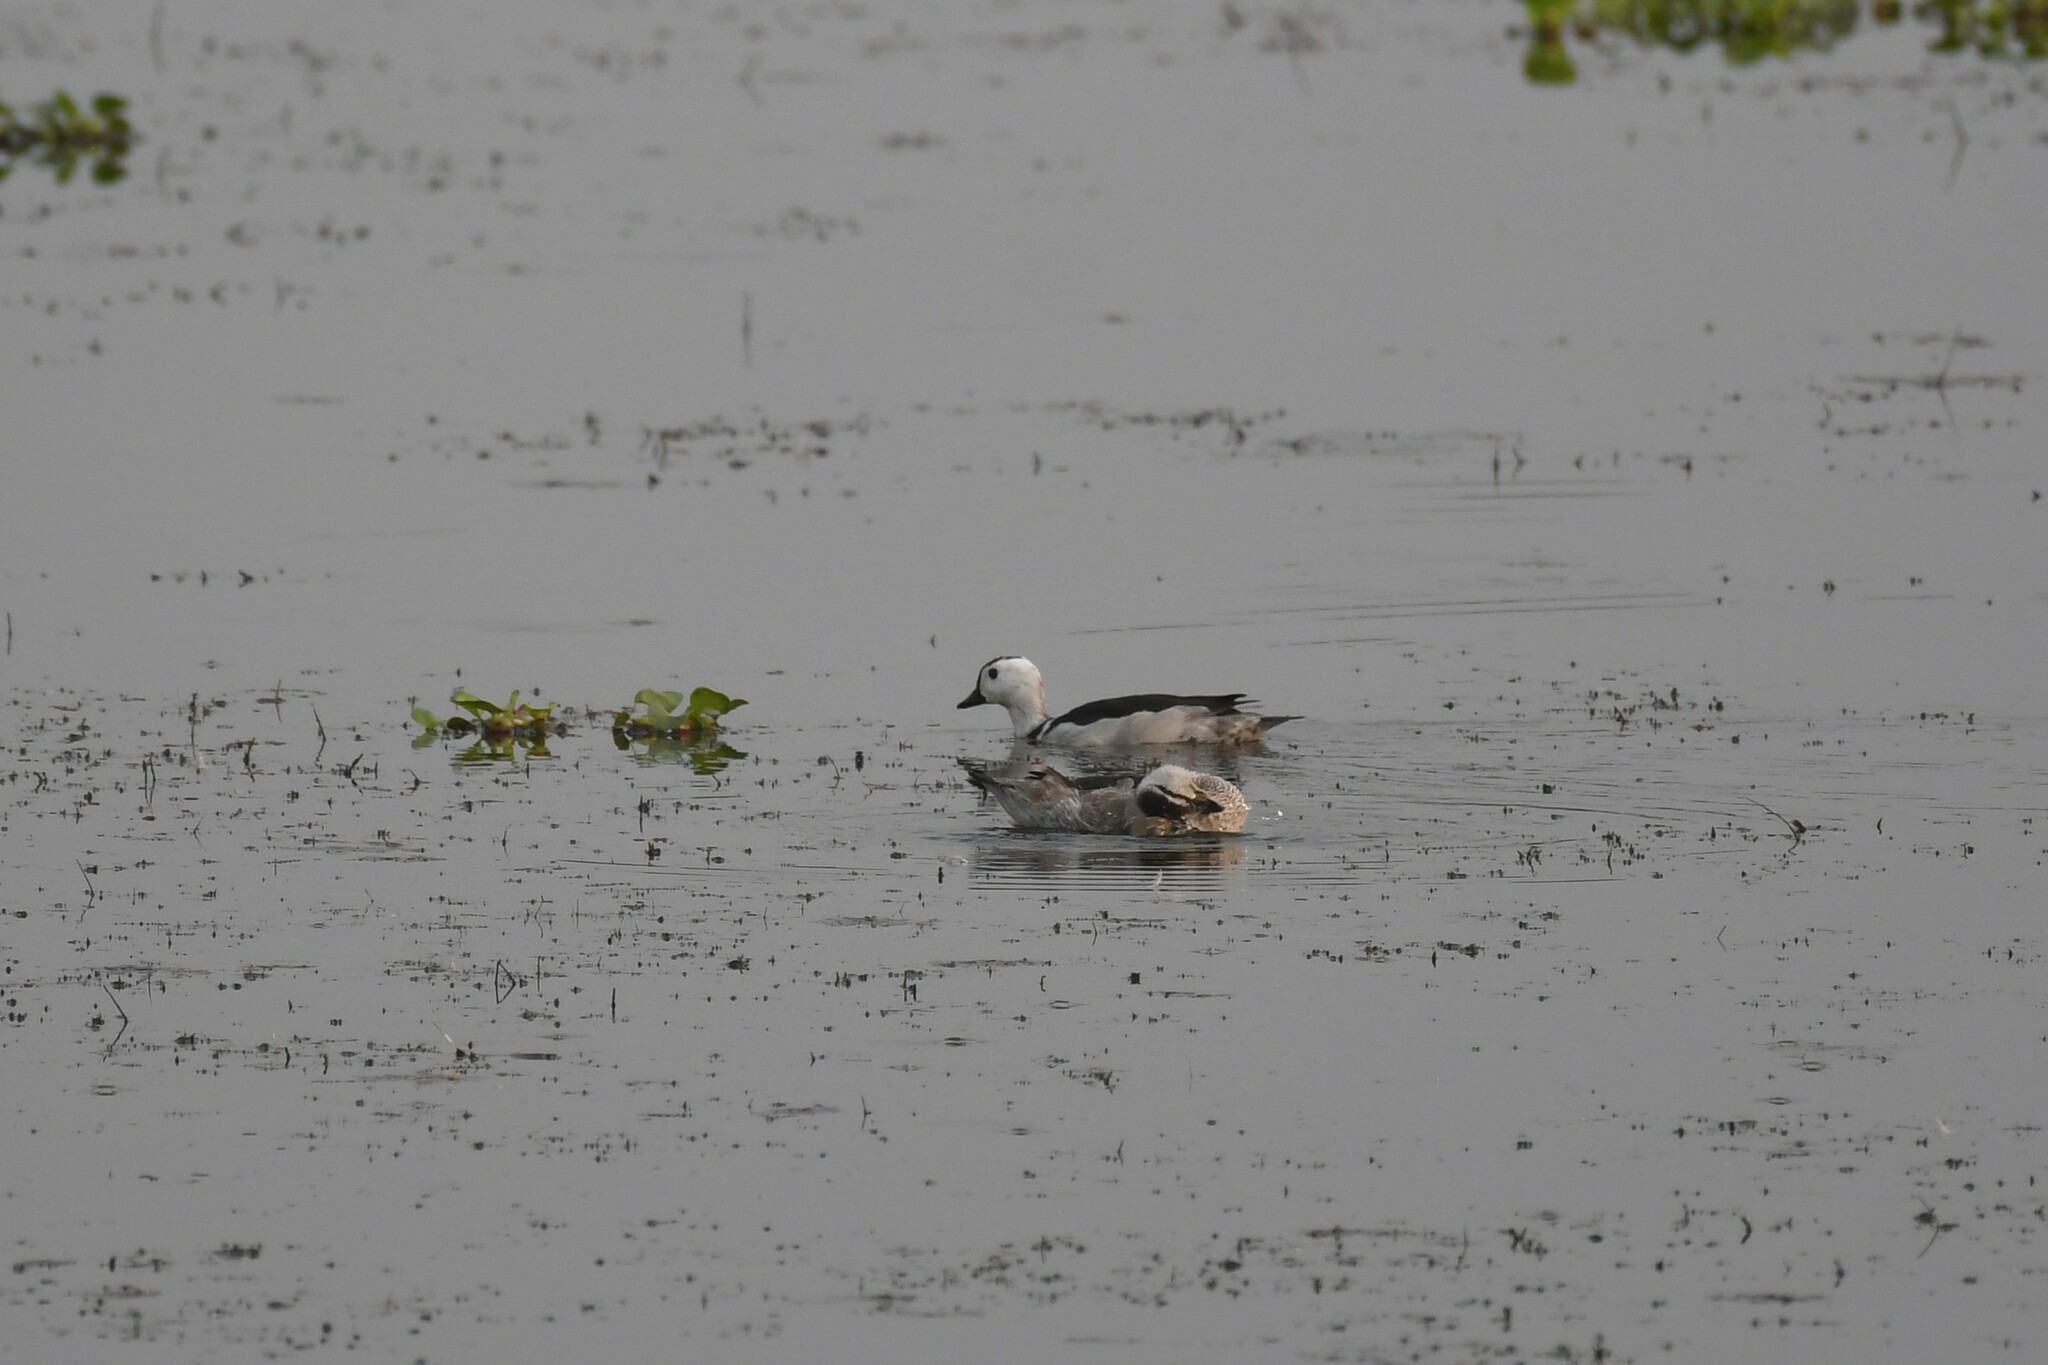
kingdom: Animalia
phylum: Chordata
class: Aves
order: Anseriformes
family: Anatidae
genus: Nettapus
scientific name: Nettapus coromandelianus
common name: Cotton pygmy-goose
